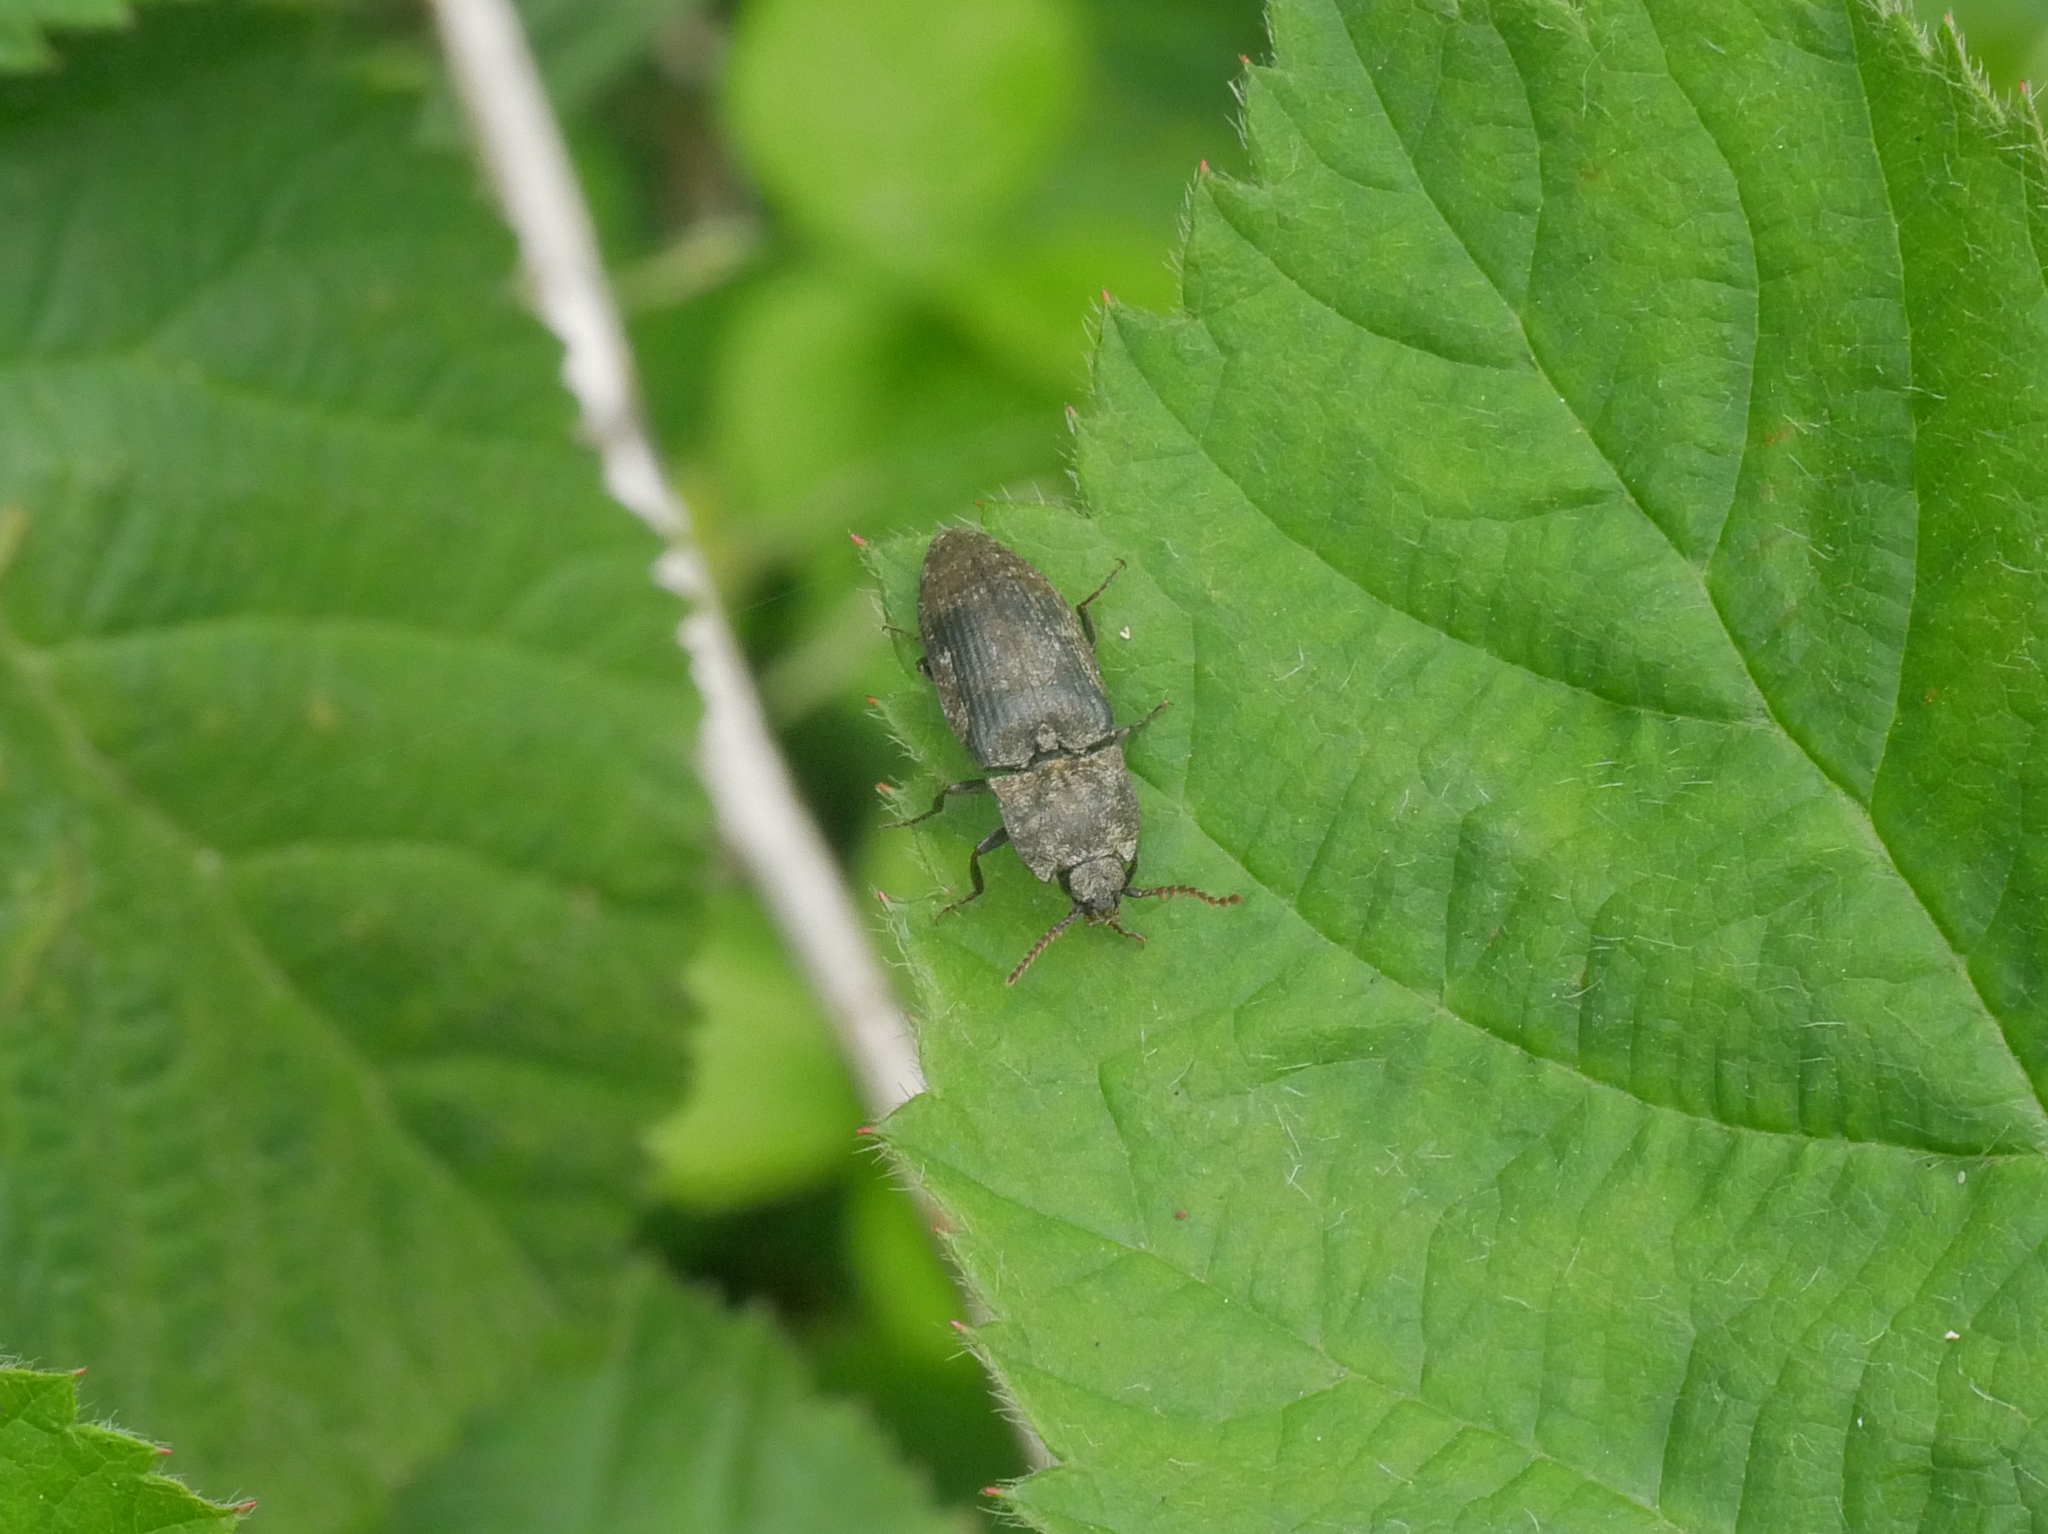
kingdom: Animalia
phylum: Arthropoda
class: Insecta
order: Coleoptera
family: Elateridae
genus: Agrypnus
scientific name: Agrypnus murinus
